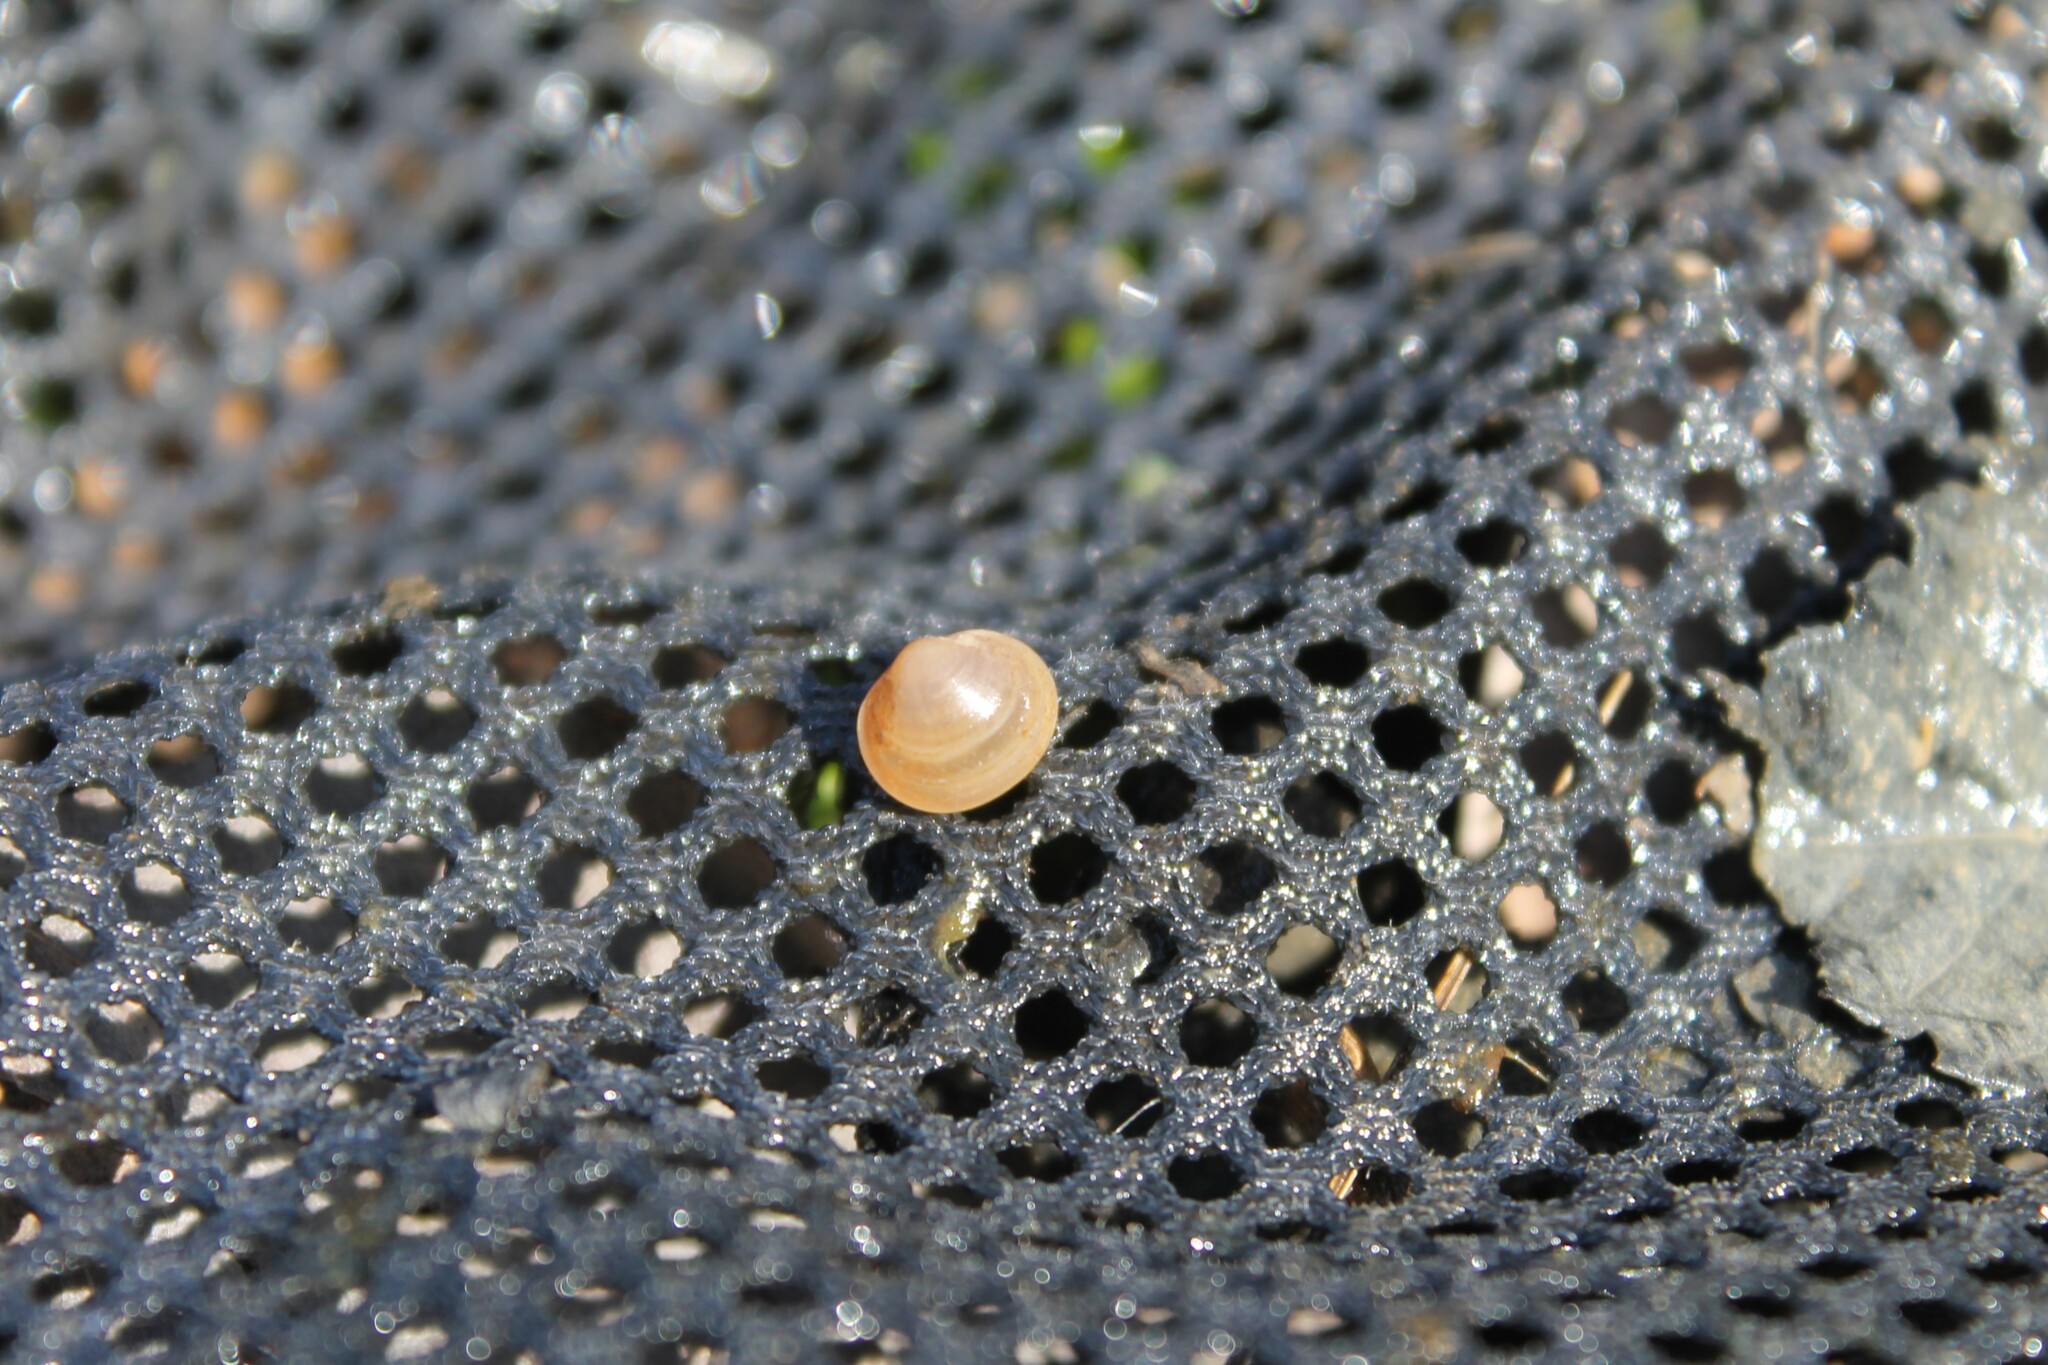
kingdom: Animalia
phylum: Mollusca
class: Bivalvia
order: Sphaeriida
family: Sphaeriidae
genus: Sphaerium
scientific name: Sphaerium occidentale
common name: Herrington fingernailclam
